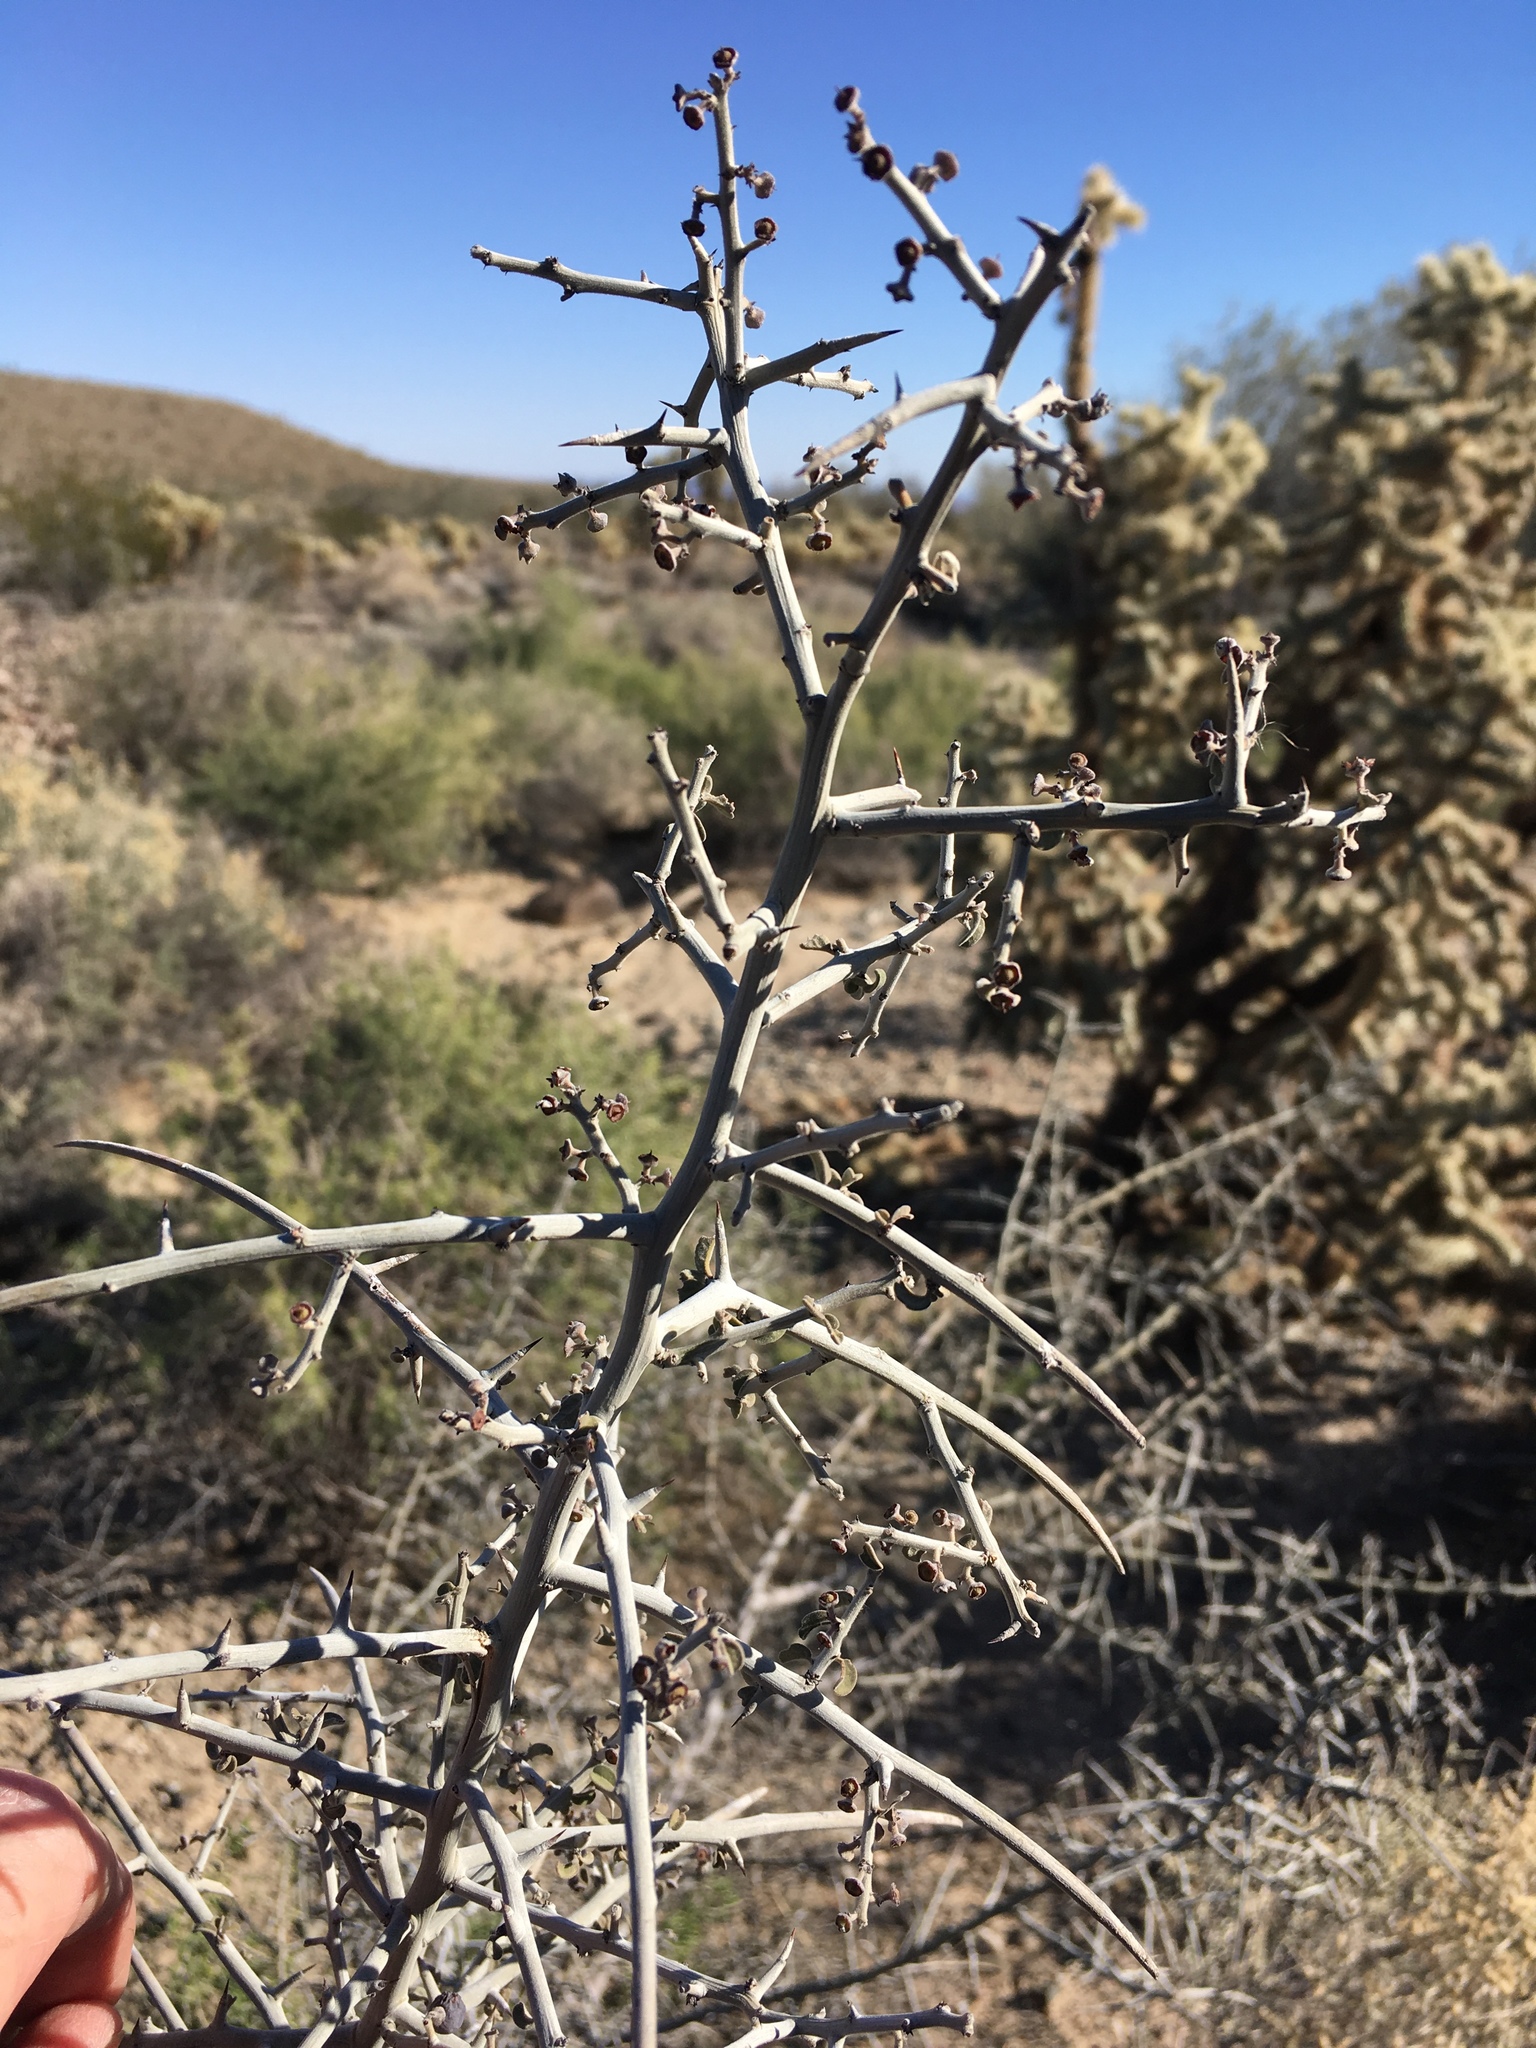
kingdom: Plantae
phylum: Tracheophyta
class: Magnoliopsida
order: Rosales
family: Rhamnaceae
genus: Sarcomphalus
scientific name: Sarcomphalus obtusifolius
